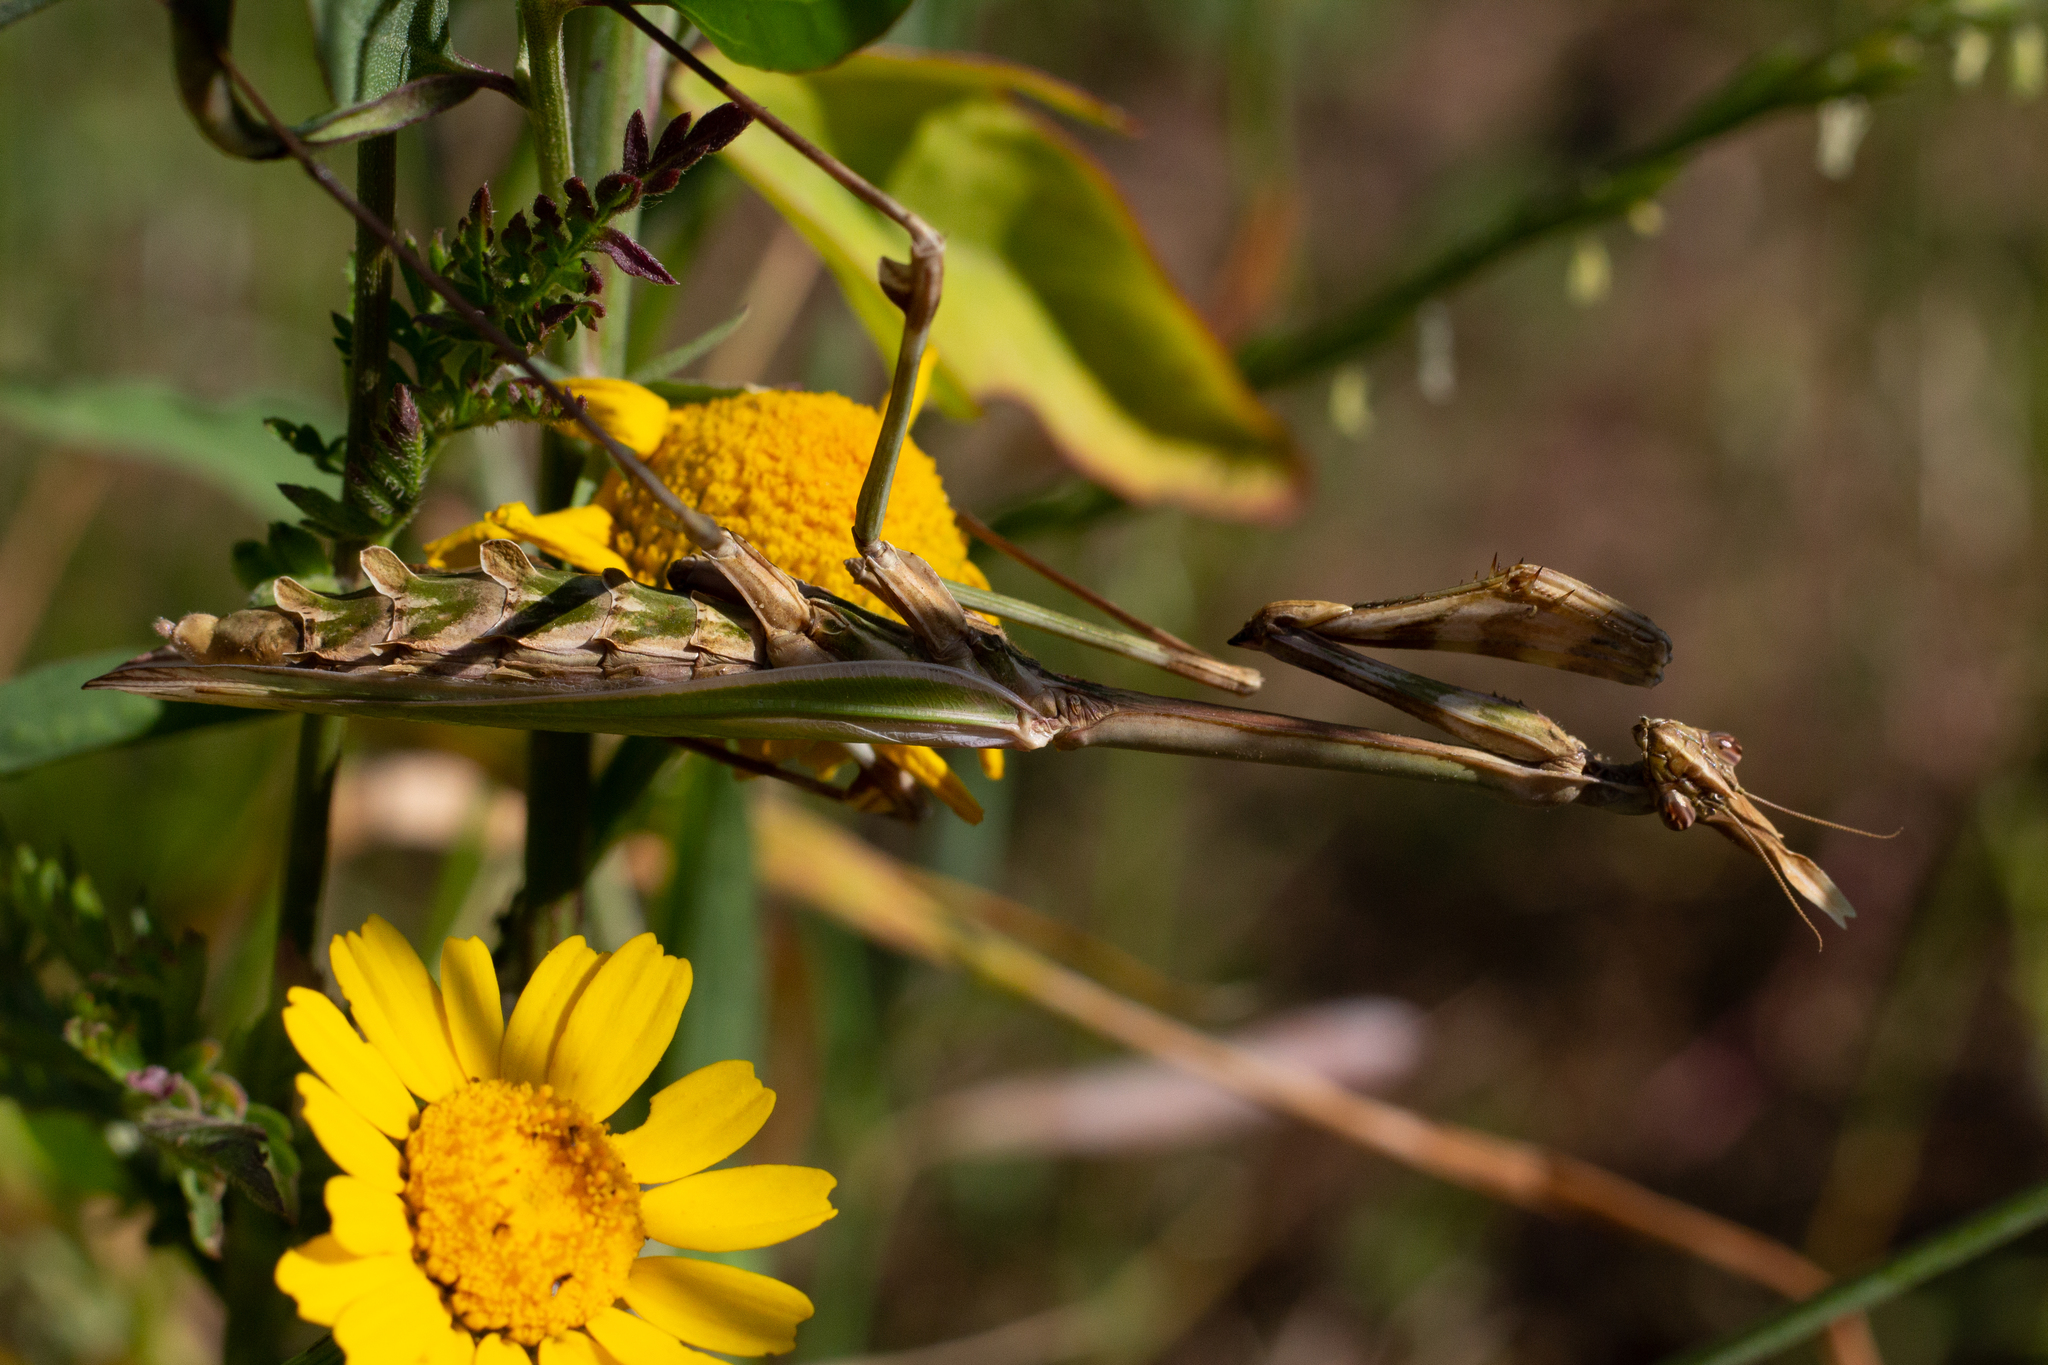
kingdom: Animalia
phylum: Arthropoda
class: Insecta
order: Mantodea
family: Empusidae
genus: Empusa
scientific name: Empusa pennata
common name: Conehead mantis
